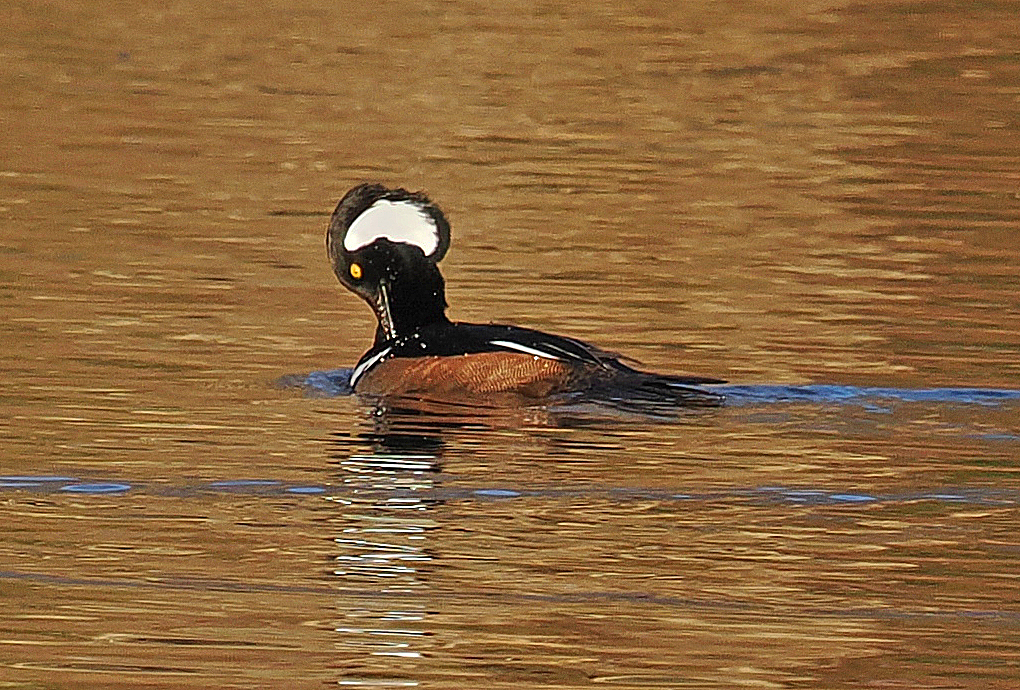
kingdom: Animalia
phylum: Chordata
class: Aves
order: Anseriformes
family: Anatidae
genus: Lophodytes
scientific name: Lophodytes cucullatus
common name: Hooded merganser
